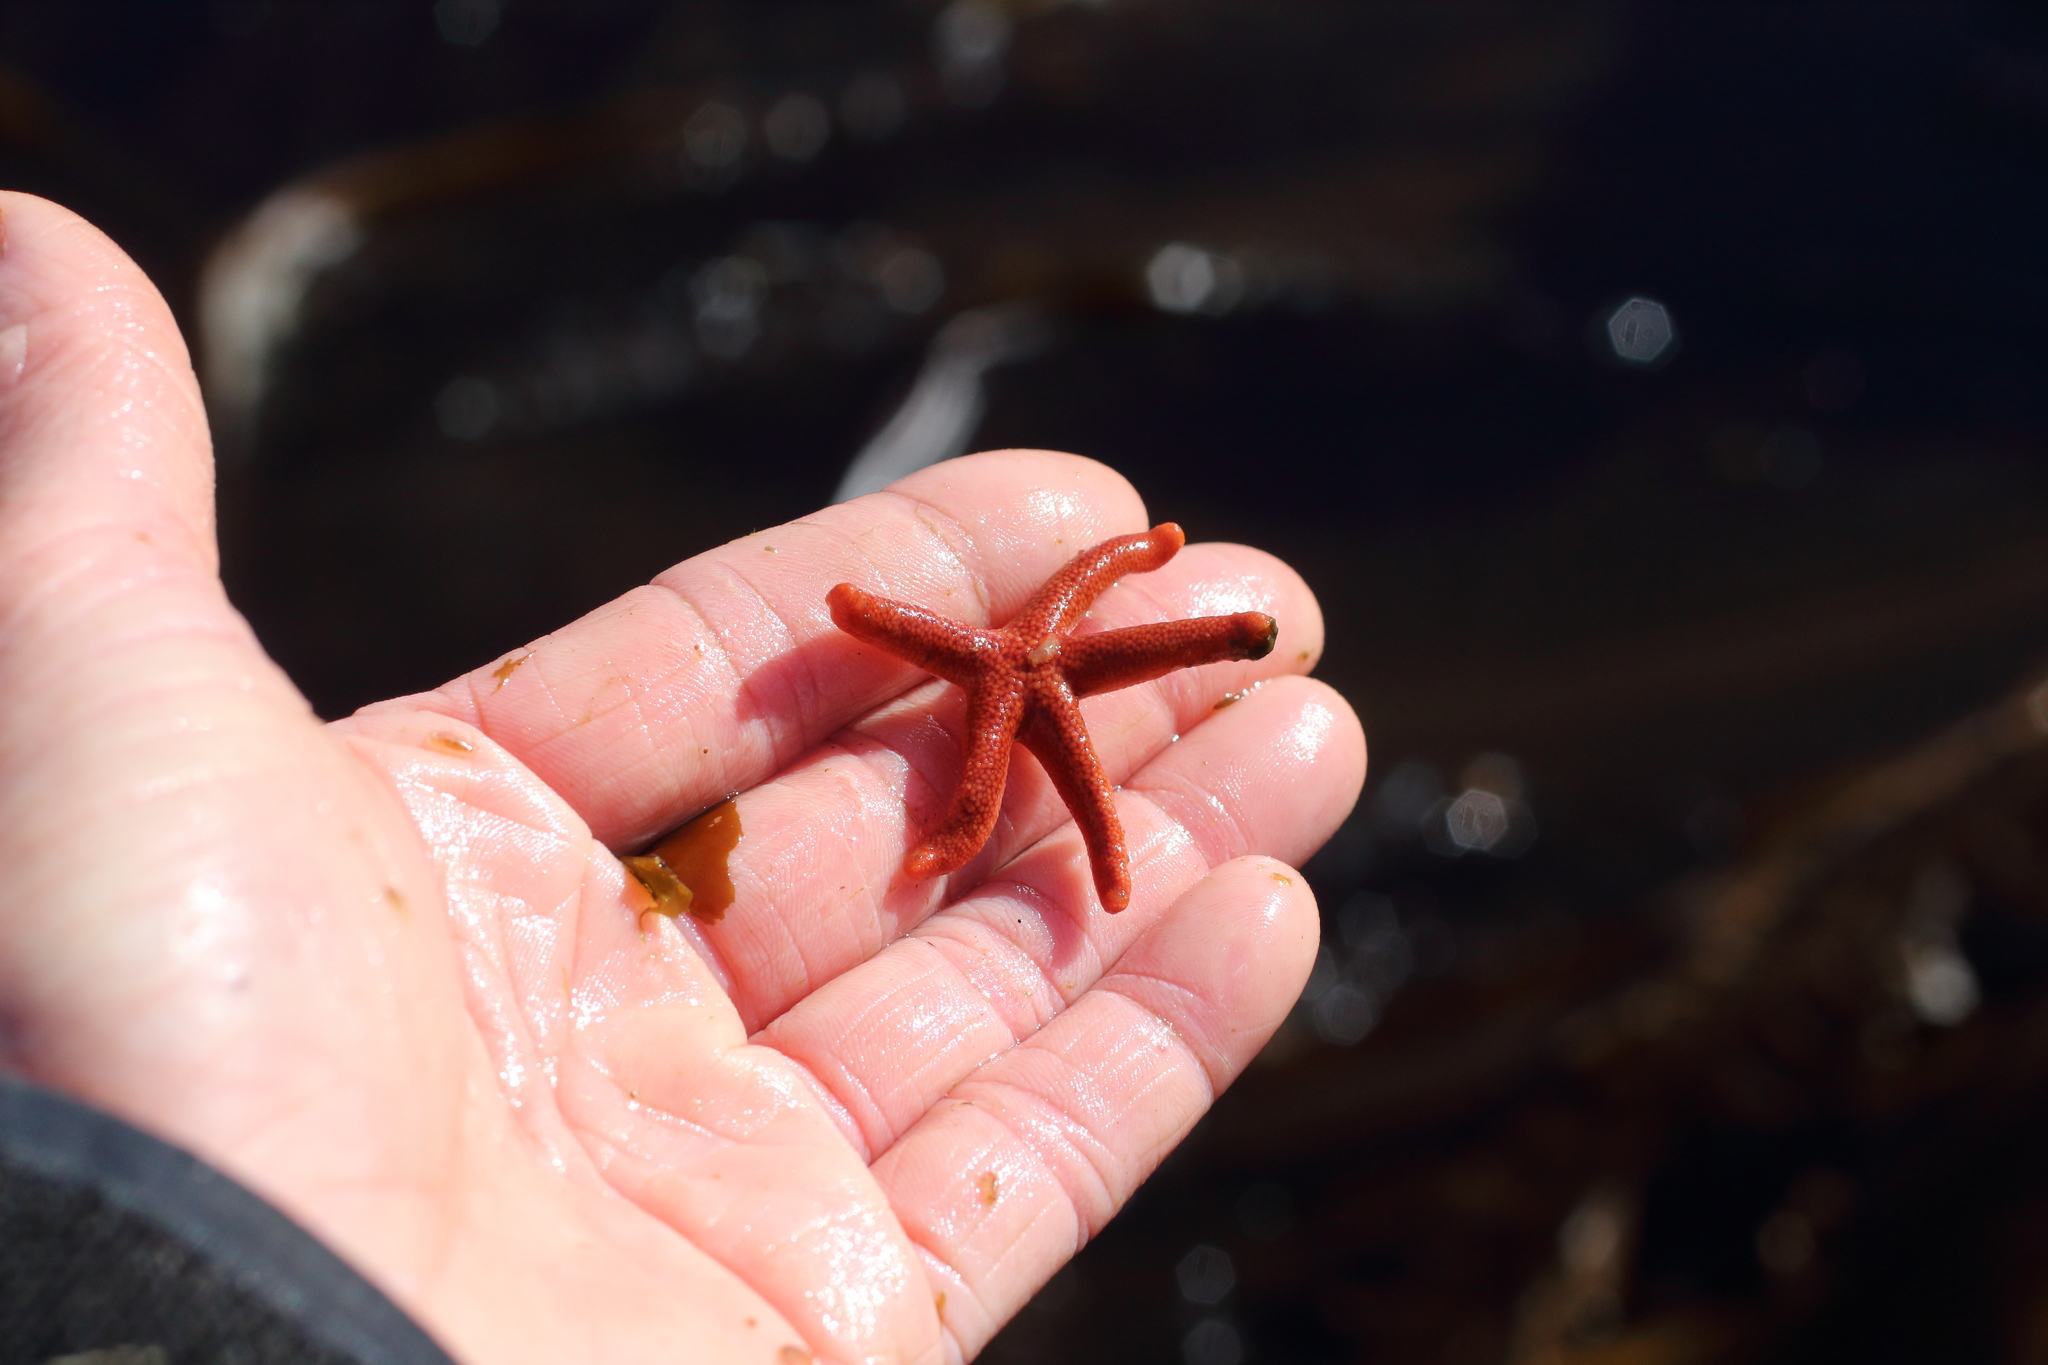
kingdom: Animalia
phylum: Echinodermata
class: Asteroidea
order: Spinulosida
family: Echinasteridae
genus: Henricia
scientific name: Henricia leviuscula
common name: Pacific blood star
